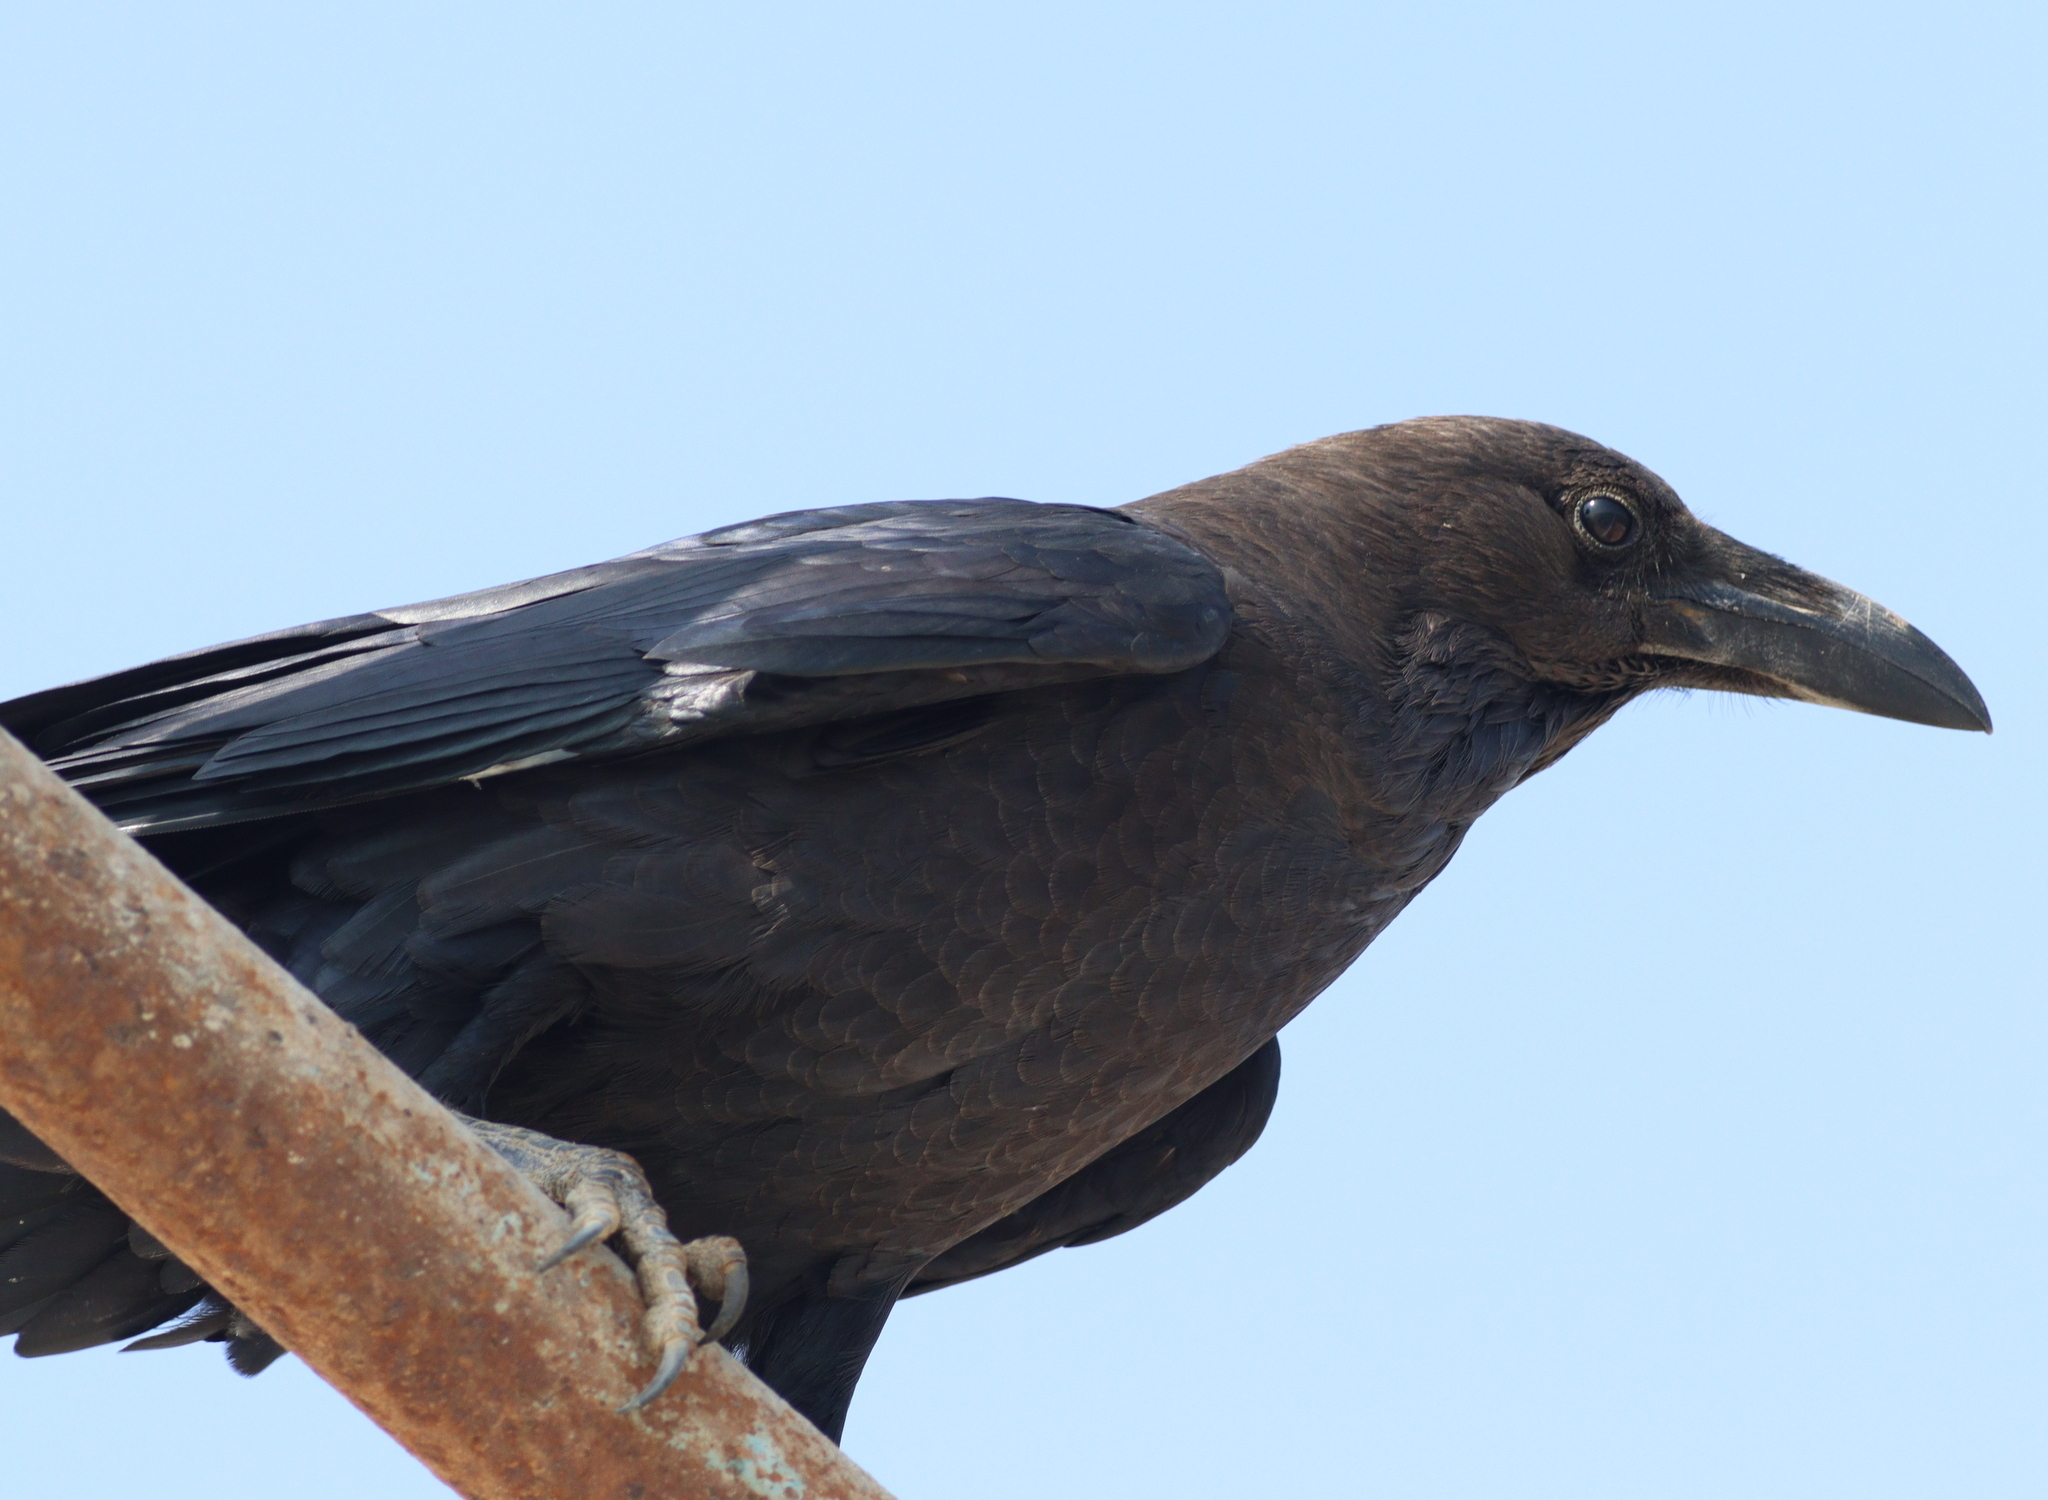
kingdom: Animalia
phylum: Chordata
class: Aves
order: Passeriformes
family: Corvidae
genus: Corvus
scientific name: Corvus ruficollis
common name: Brown-necked raven
